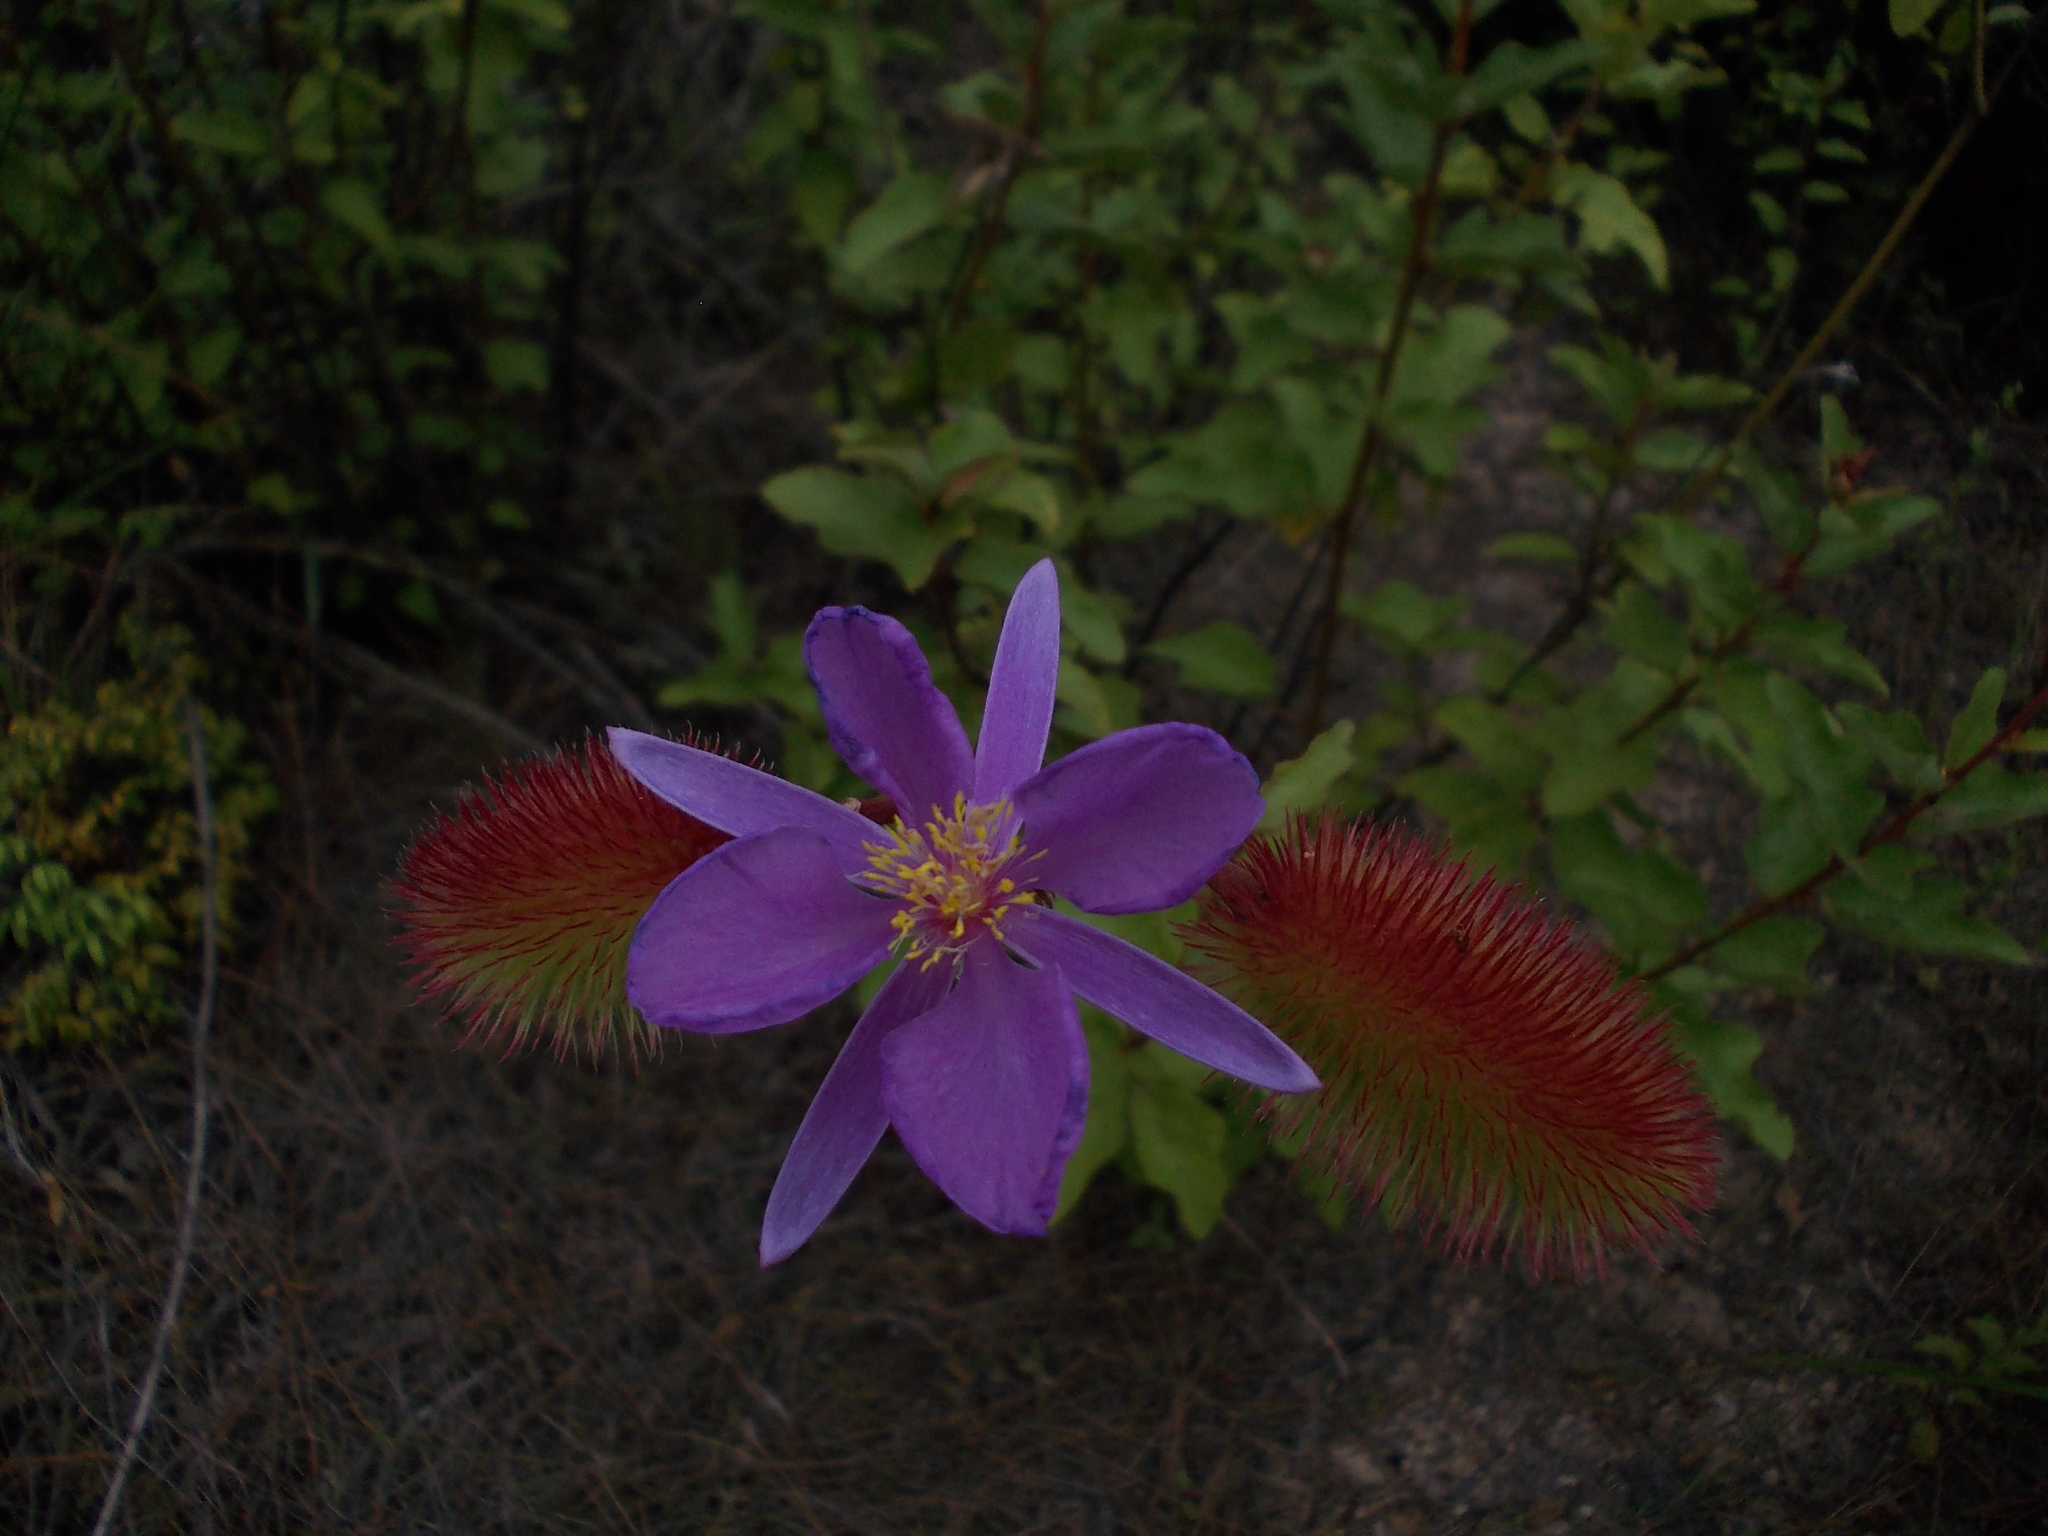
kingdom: Plantae
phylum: Tracheophyta
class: Magnoliopsida
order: Malvales
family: Malvaceae
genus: Clappertonia
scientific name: Clappertonia ficifolia
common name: Bolo-bolo
